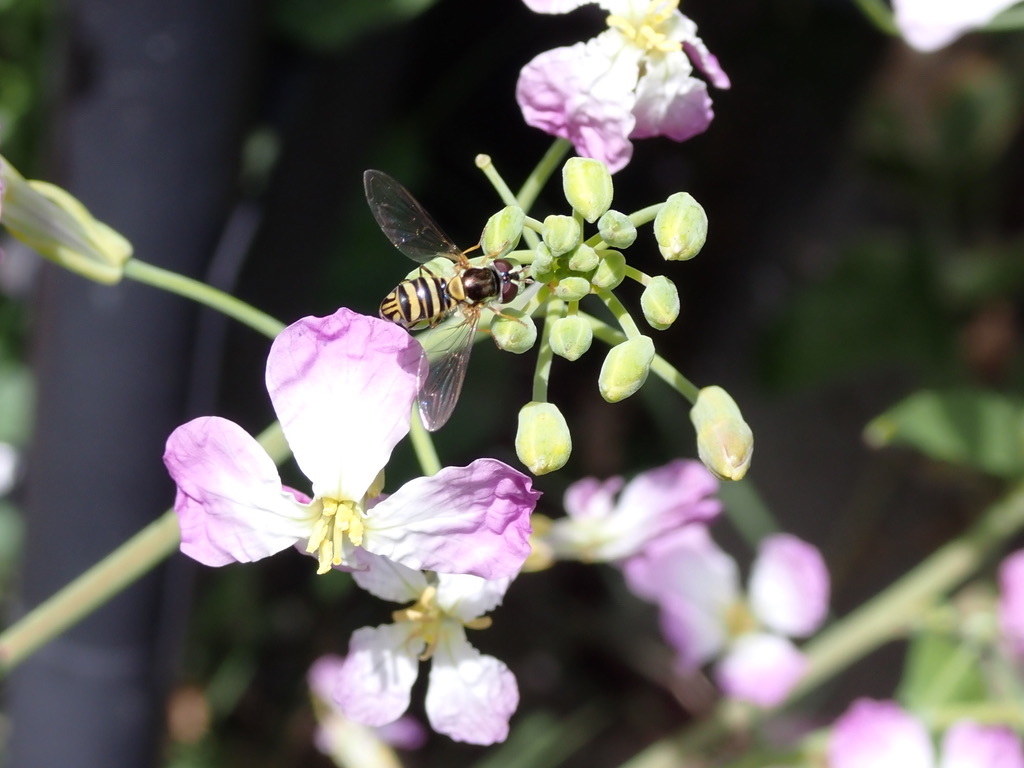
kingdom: Animalia
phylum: Arthropoda
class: Insecta
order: Diptera
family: Syrphidae
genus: Allograpta
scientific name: Allograpta obliqua
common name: Common oblique syrphid
